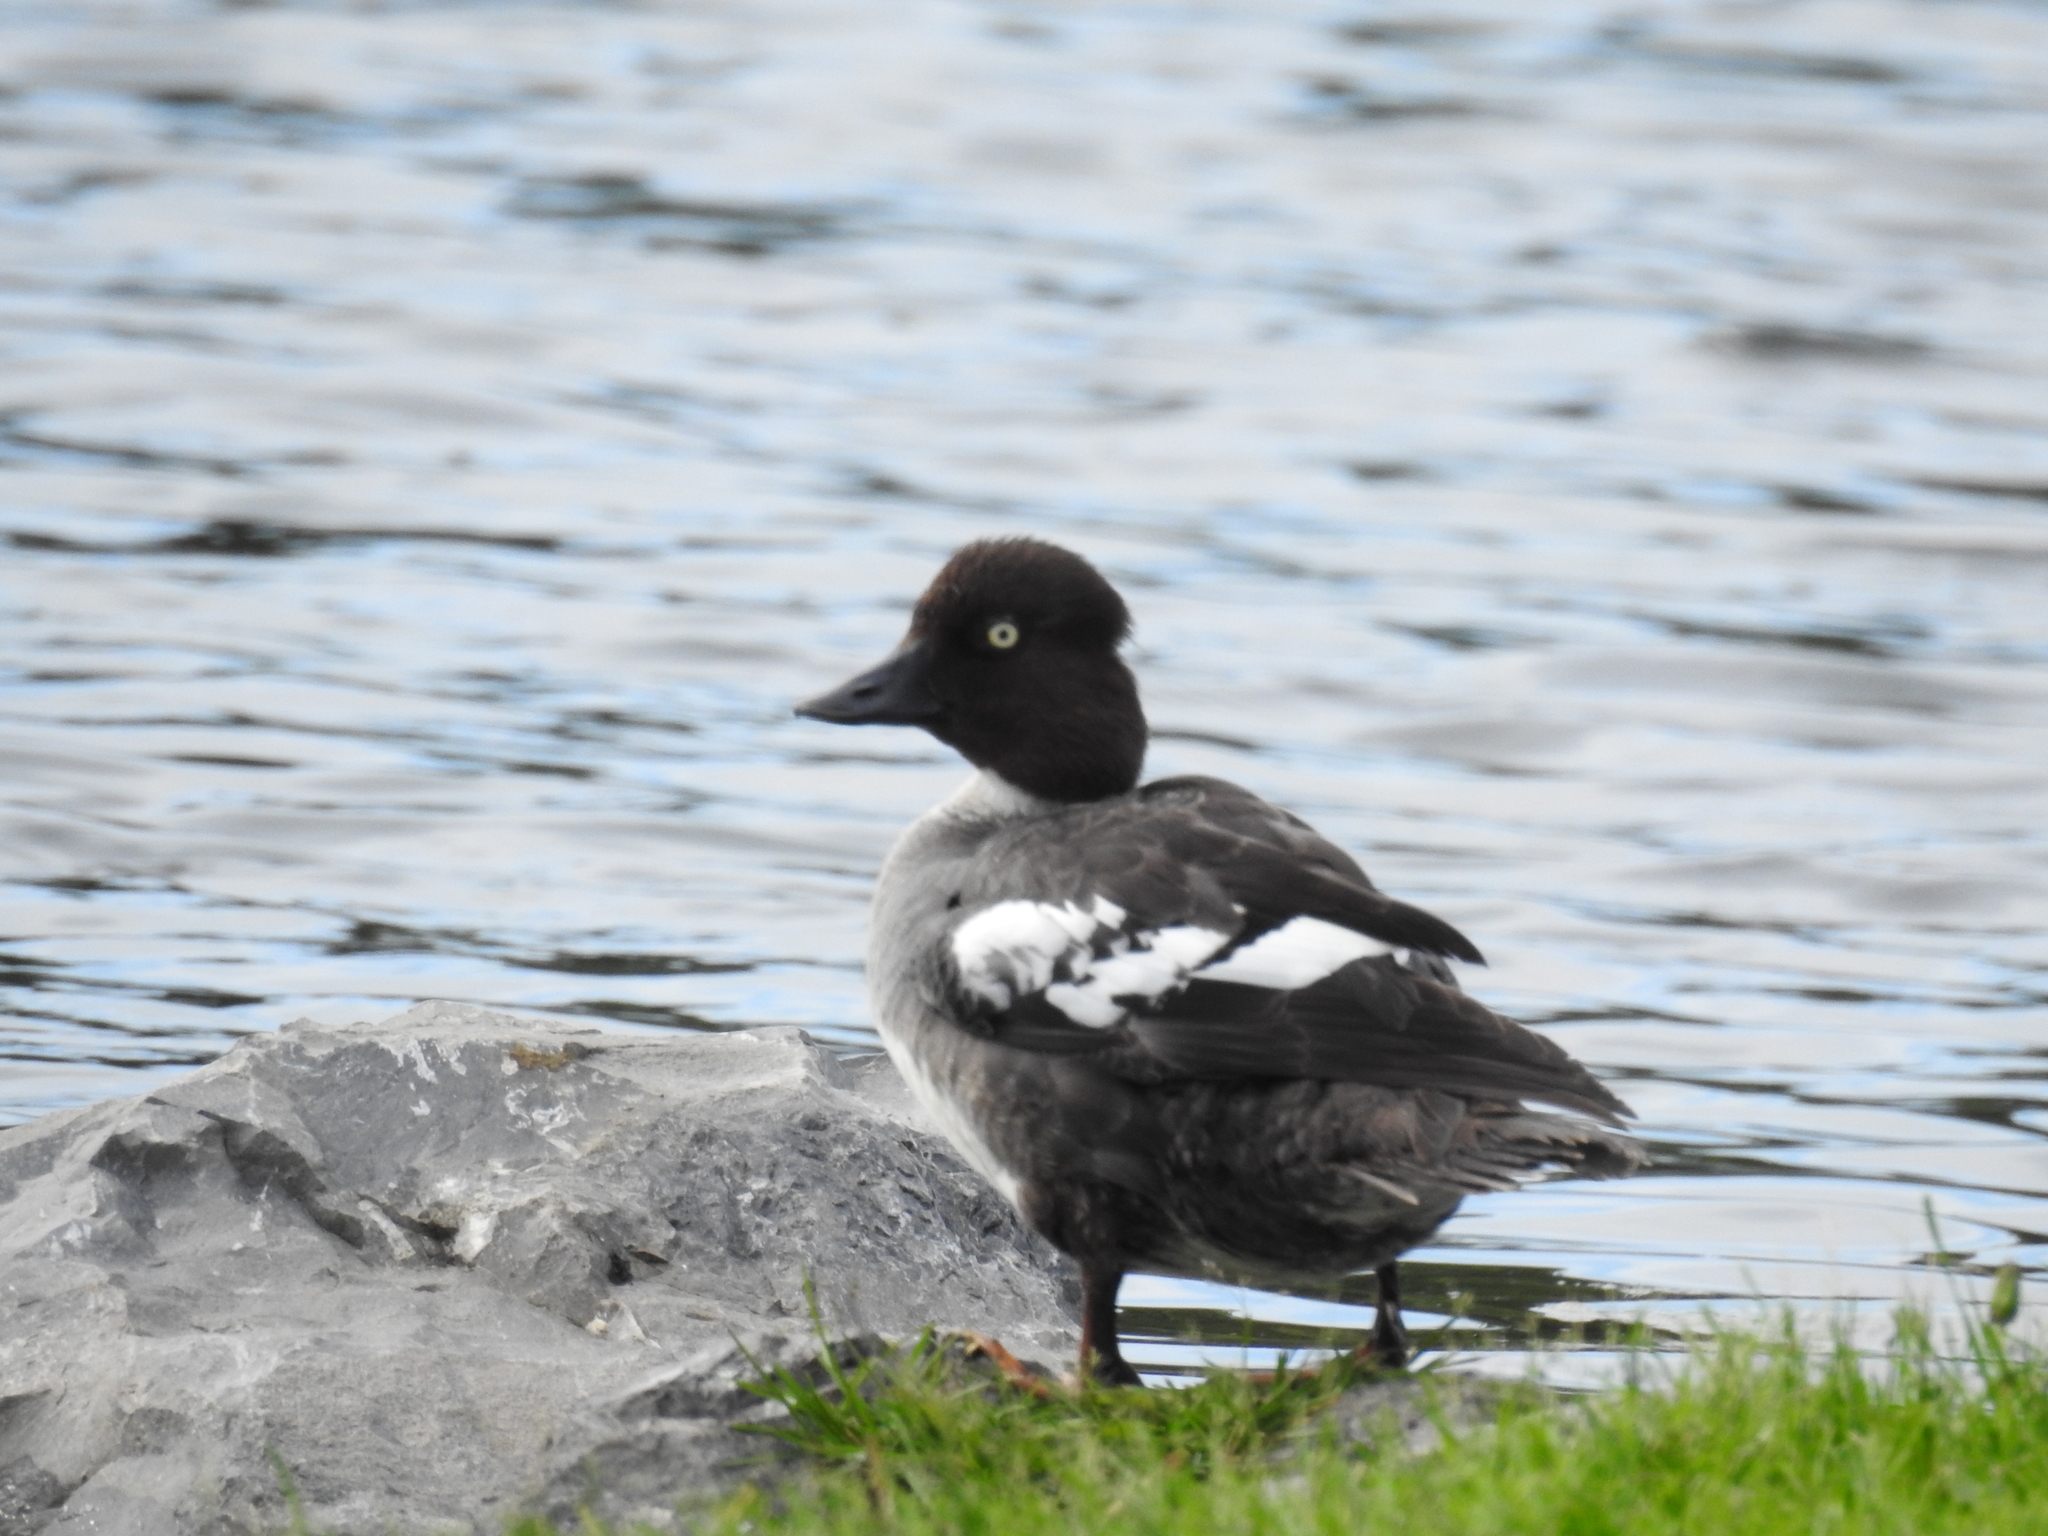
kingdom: Animalia
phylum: Chordata
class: Aves
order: Anseriformes
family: Anatidae
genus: Bucephala
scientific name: Bucephala clangula
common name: Common goldeneye
